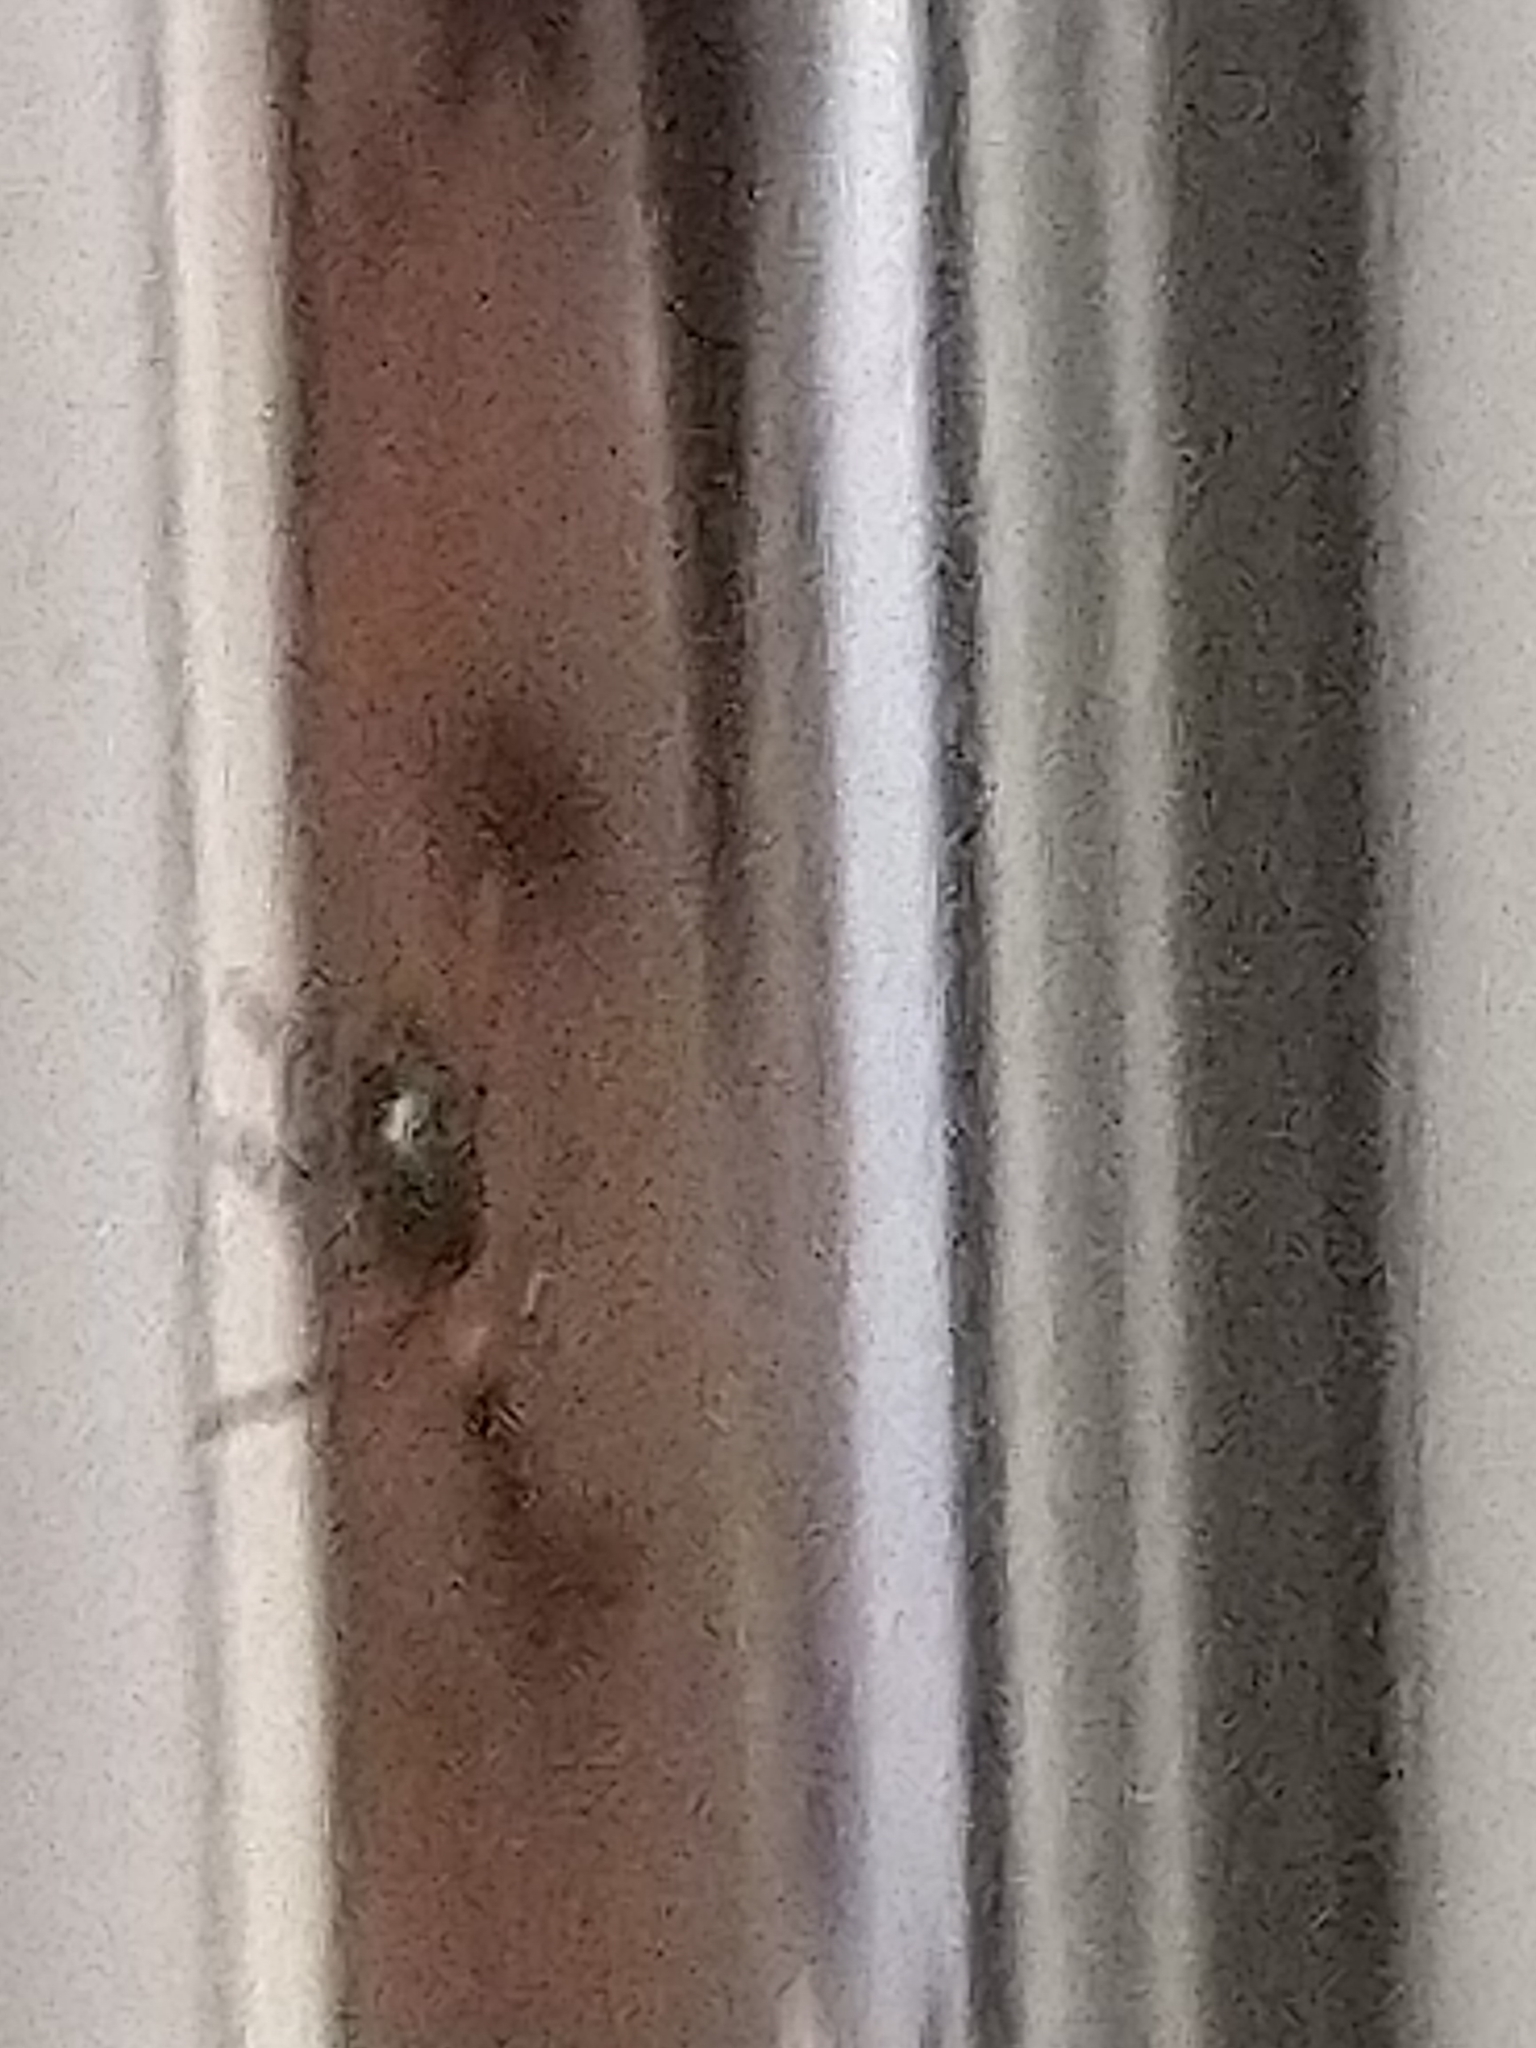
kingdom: Animalia
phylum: Arthropoda
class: Insecta
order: Coleoptera
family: Brentidae
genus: Cylas
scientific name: Cylas formicarius
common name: Sweetpotato weevil
